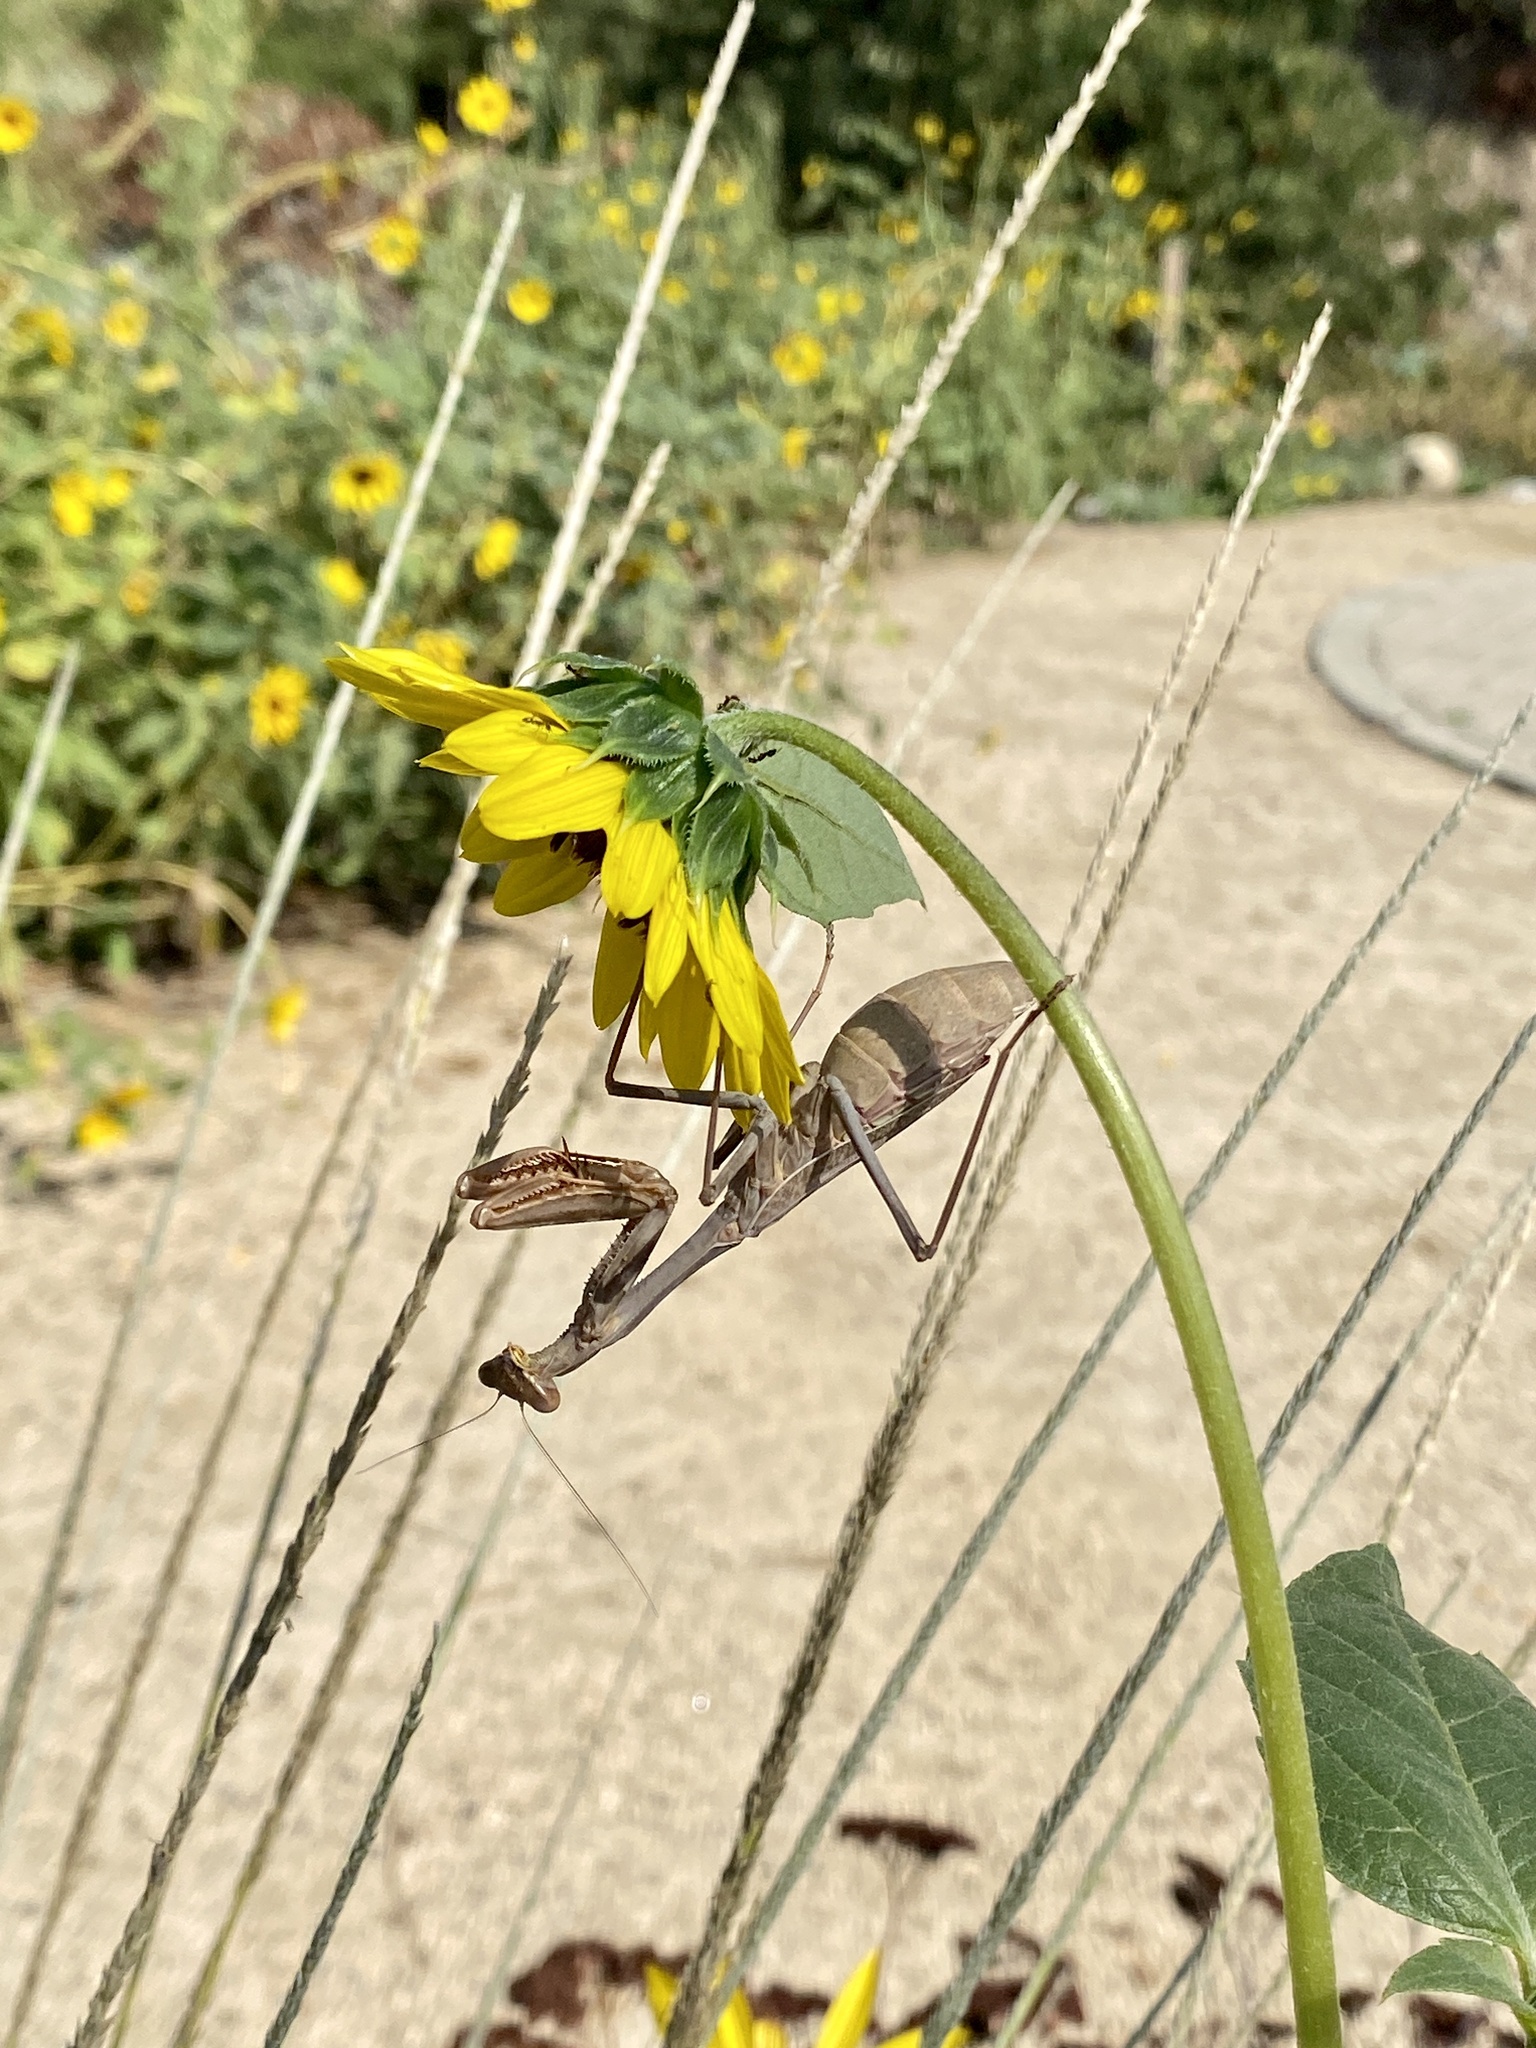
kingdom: Animalia
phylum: Arthropoda
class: Insecta
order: Mantodea
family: Mantidae
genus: Stagmomantis
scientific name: Stagmomantis limbata
